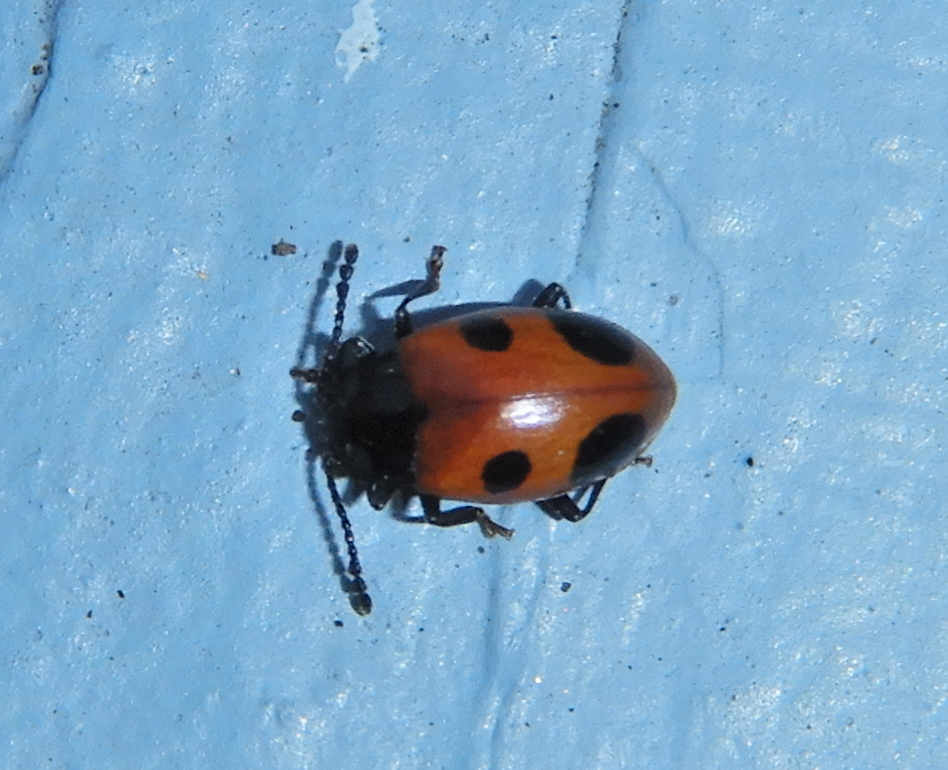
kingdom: Animalia
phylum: Arthropoda
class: Insecta
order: Coleoptera
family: Endomychidae
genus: Endomychus
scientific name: Endomychus biguttatus
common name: Handsome fungus beetle
